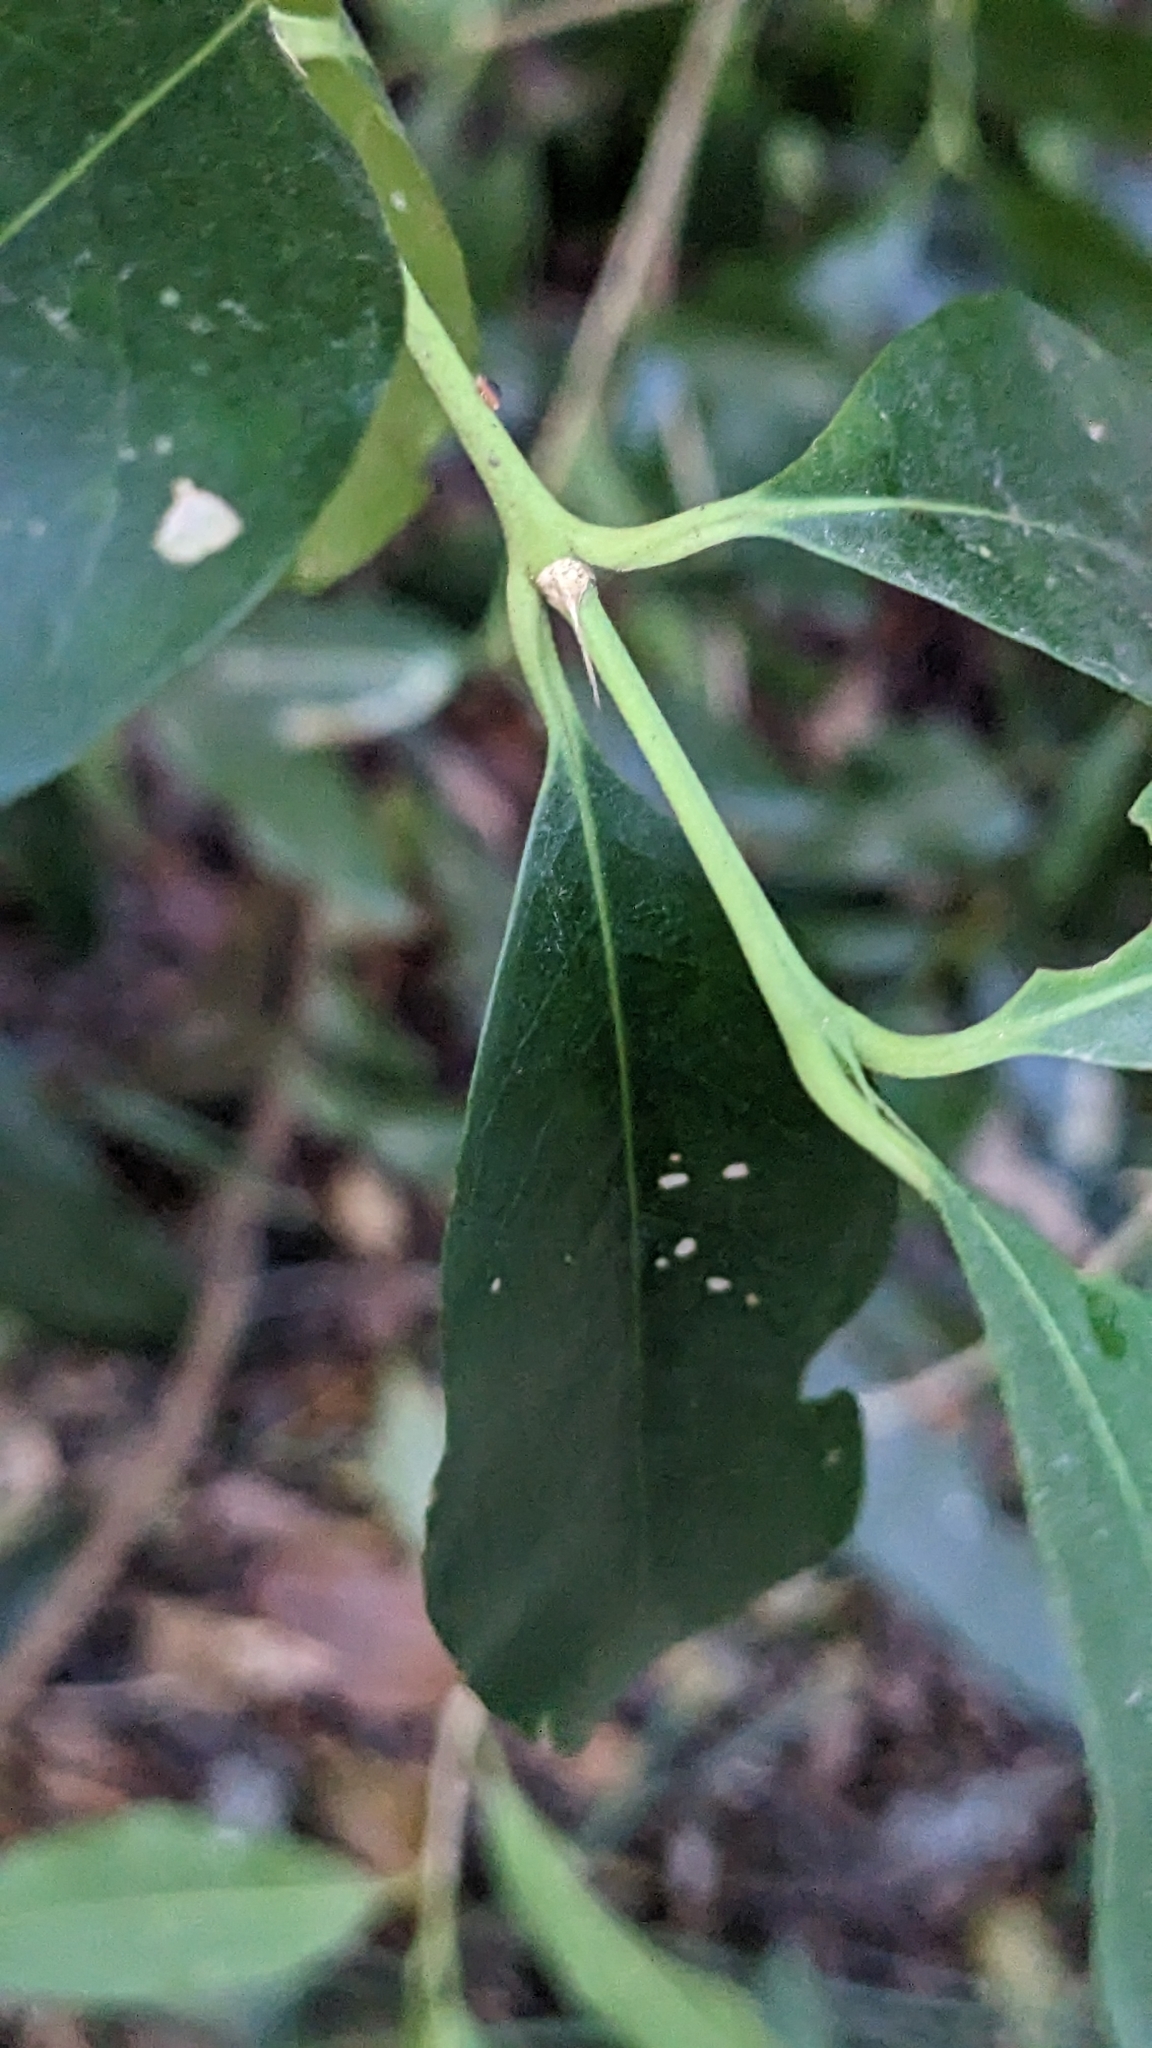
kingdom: Plantae
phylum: Tracheophyta
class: Magnoliopsida
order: Gentianales
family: Rubiaceae
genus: Diplospora
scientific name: Diplospora dubia
